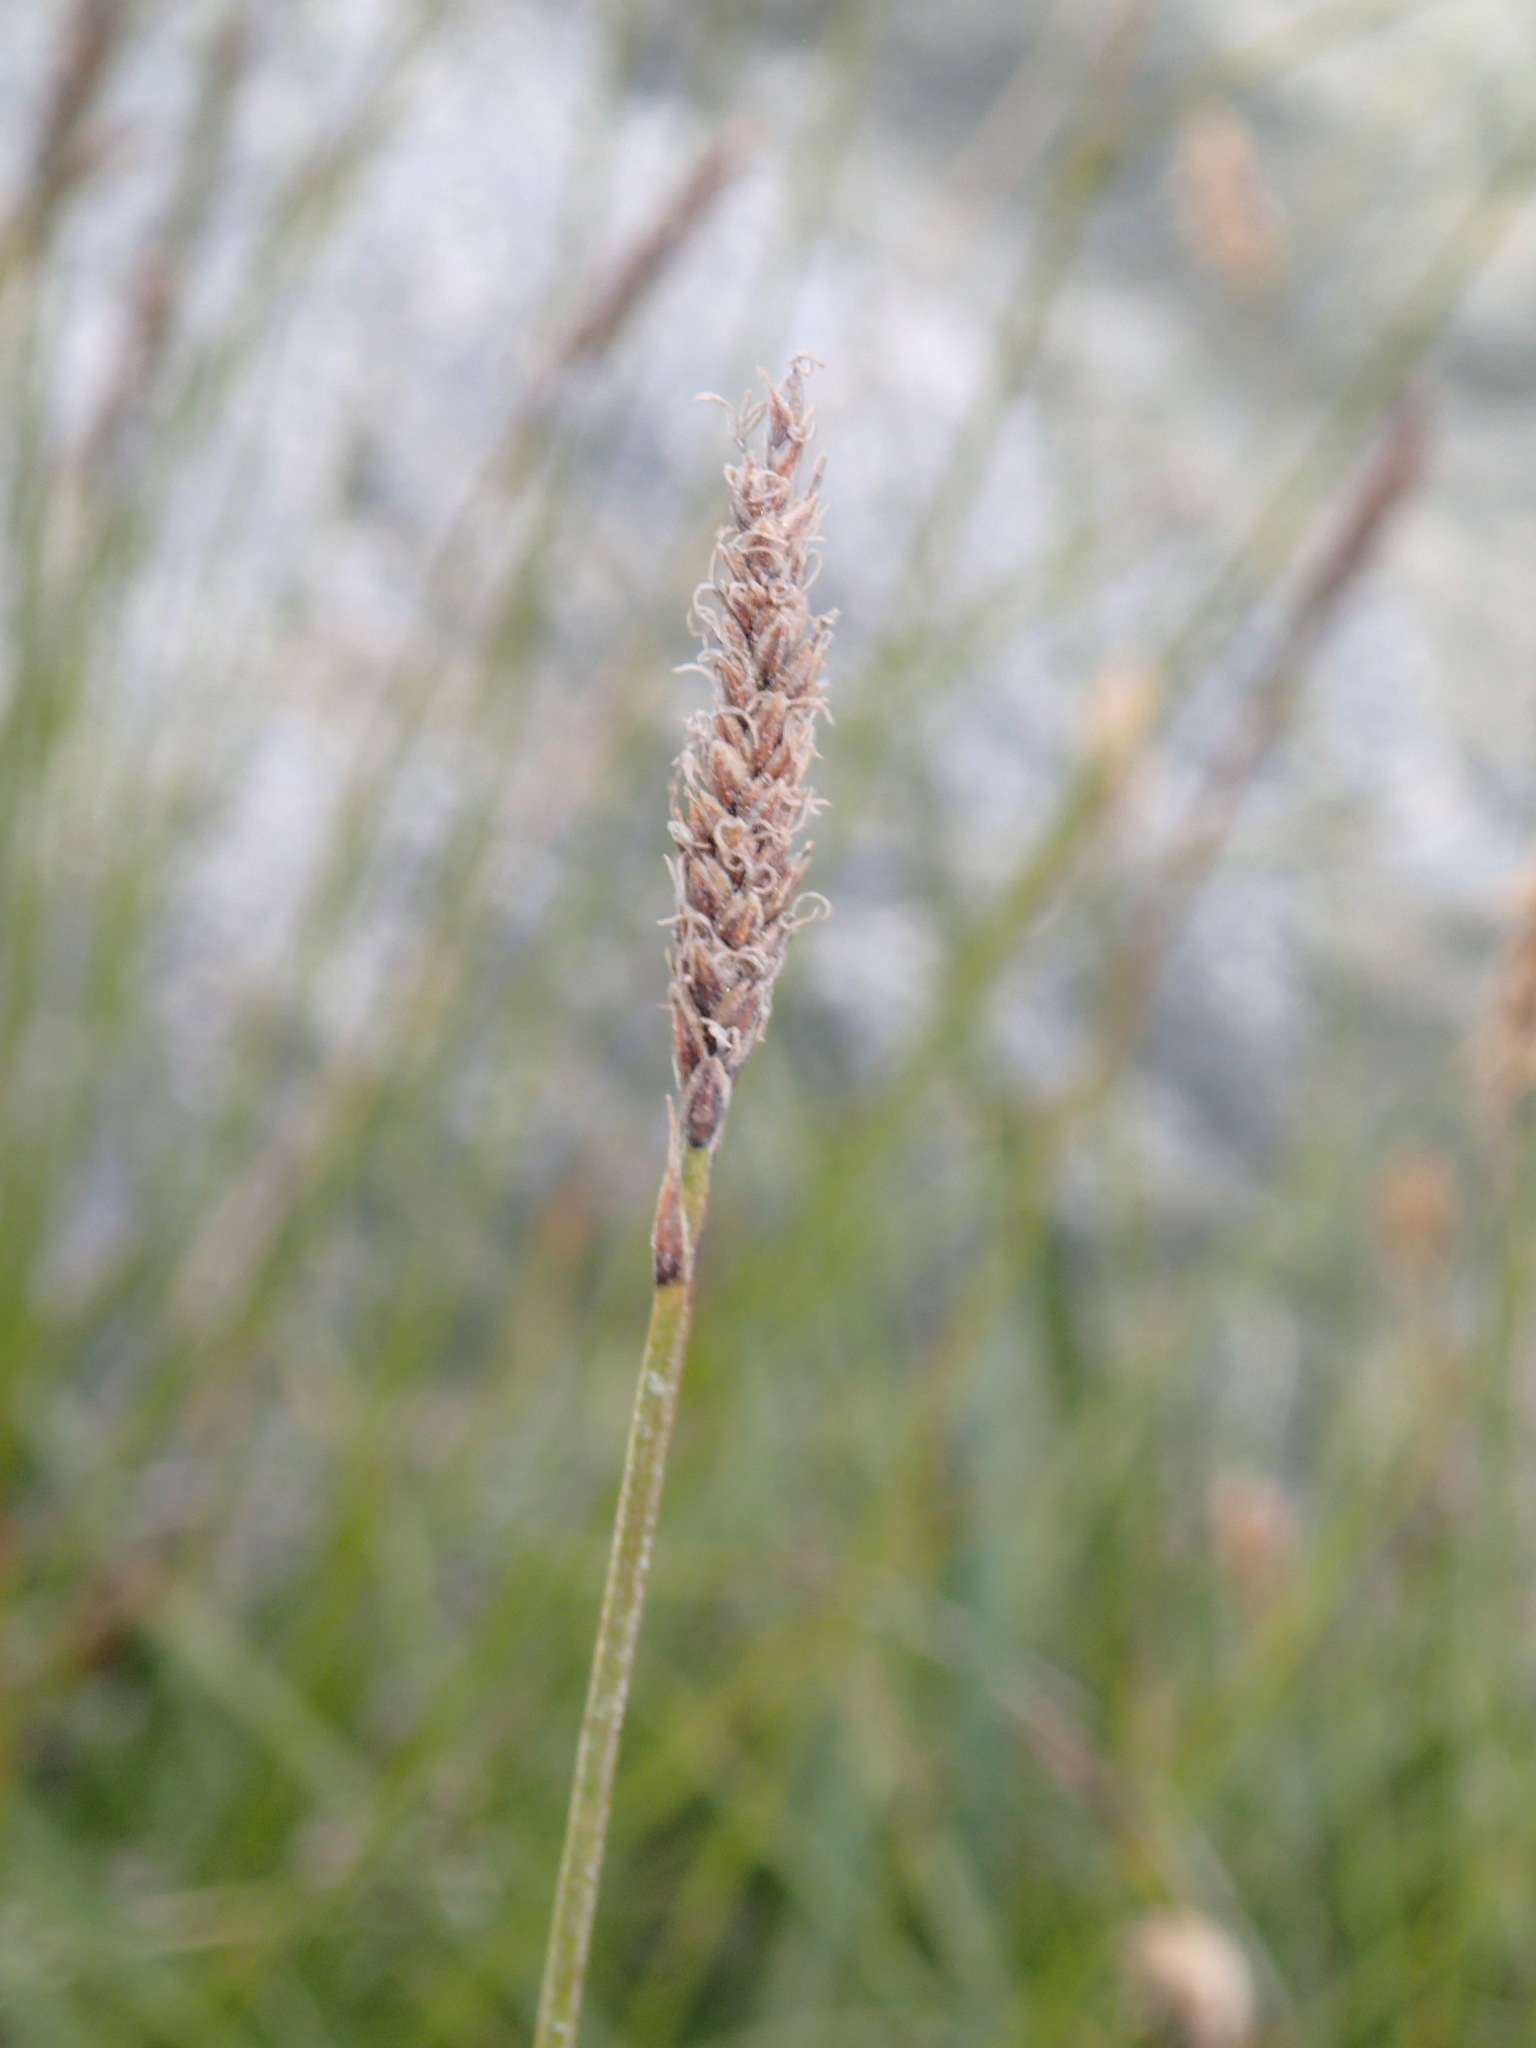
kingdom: Plantae
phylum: Tracheophyta
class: Liliopsida
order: Poales
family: Cyperaceae
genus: Carex
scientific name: Carex scirpoidea
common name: Canada single-spike sedge
